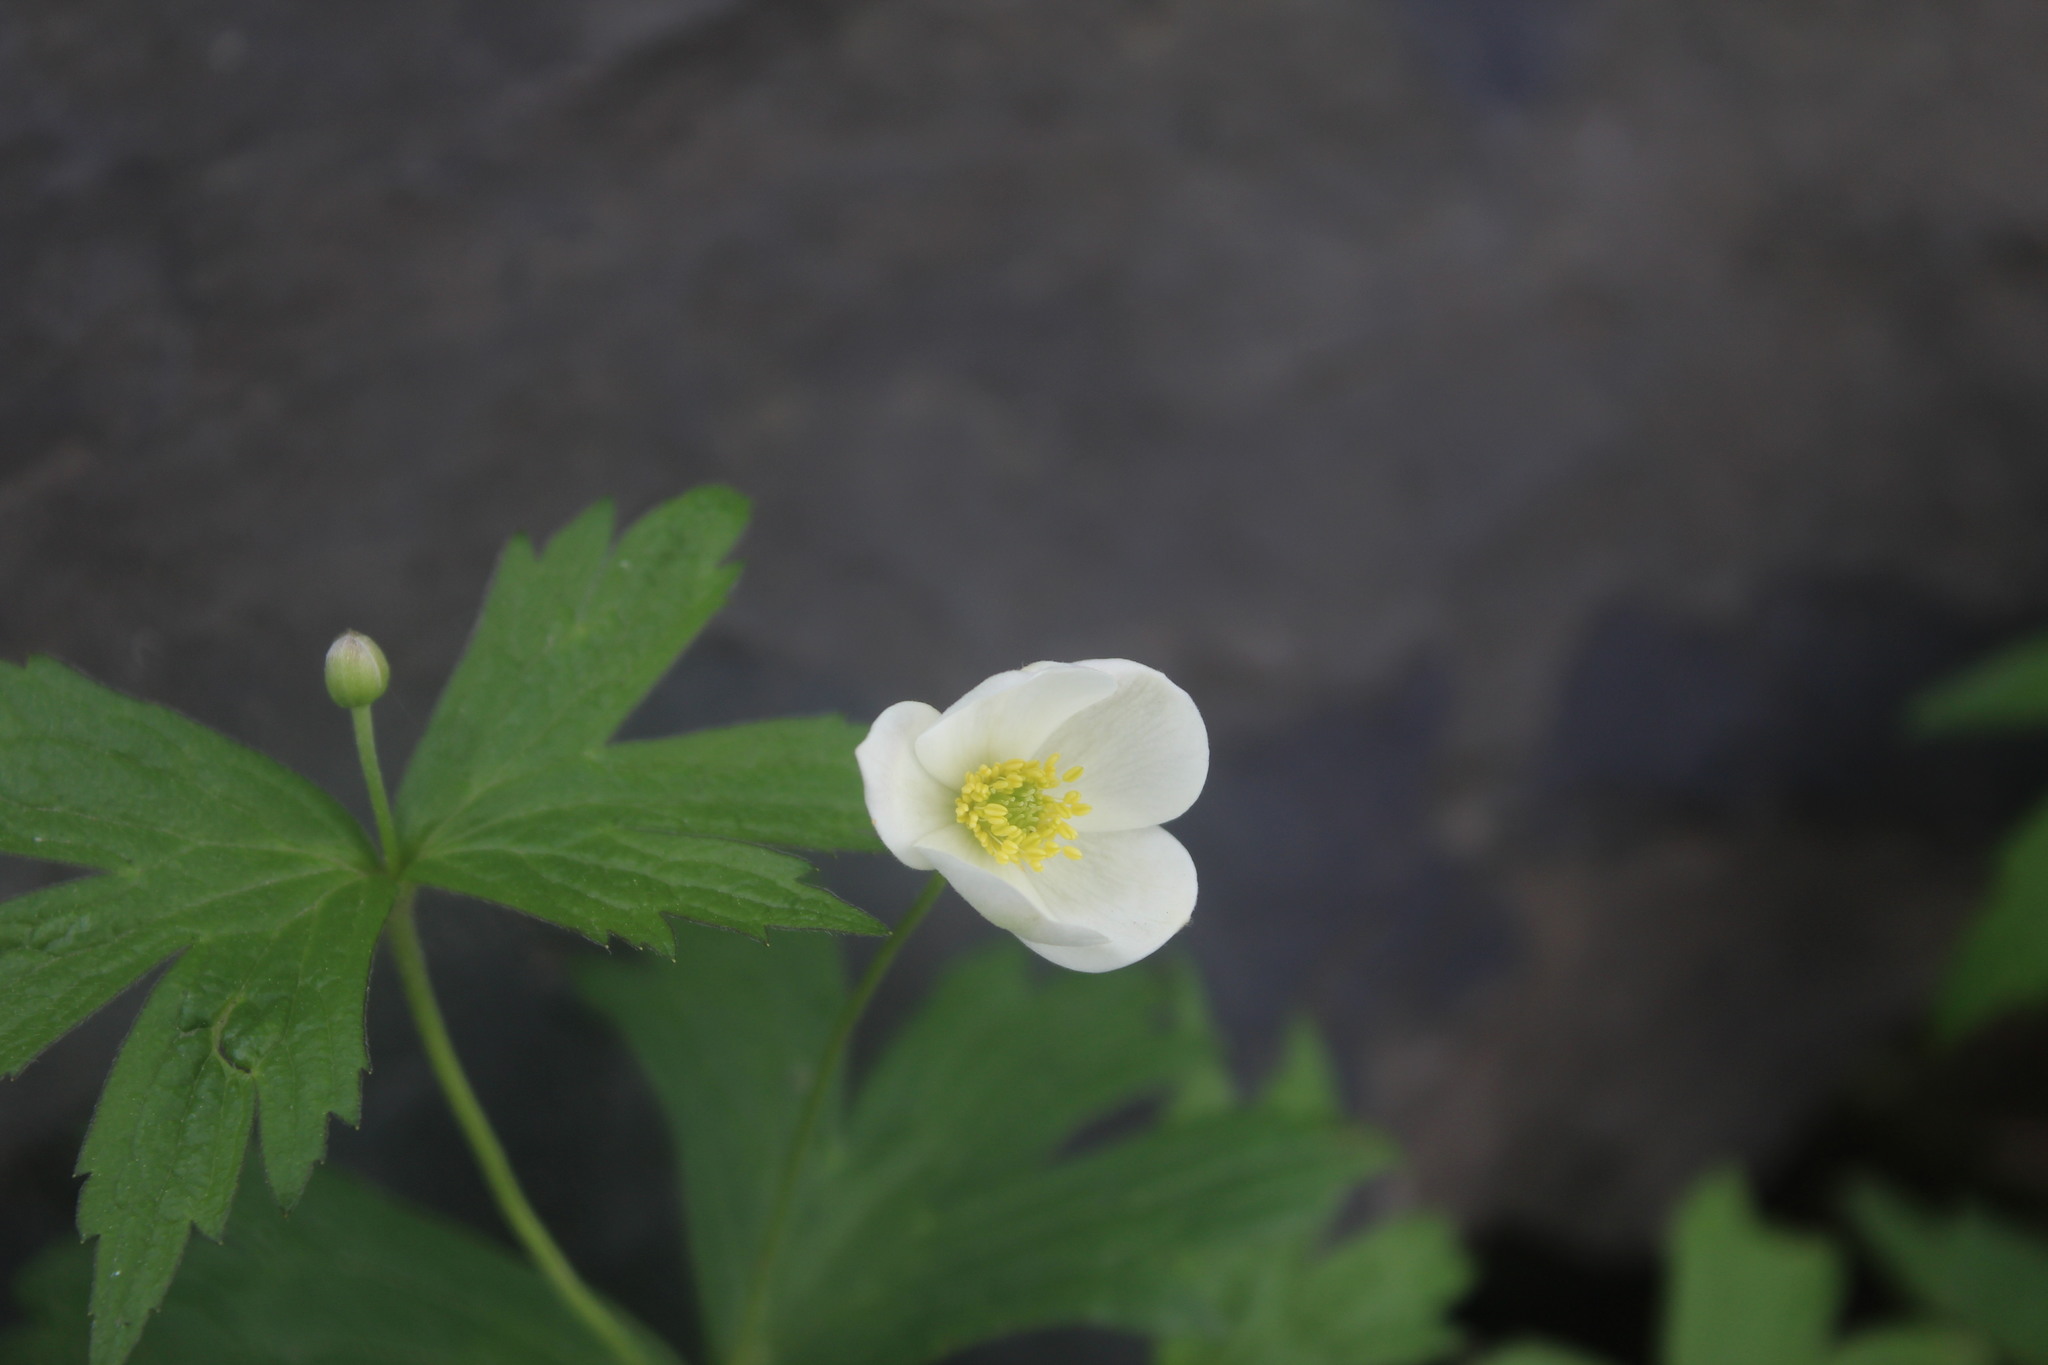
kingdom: Plantae
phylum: Tracheophyta
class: Magnoliopsida
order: Ranunculales
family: Ranunculaceae
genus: Anemonastrum
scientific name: Anemonastrum canadense
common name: Canada anemone
